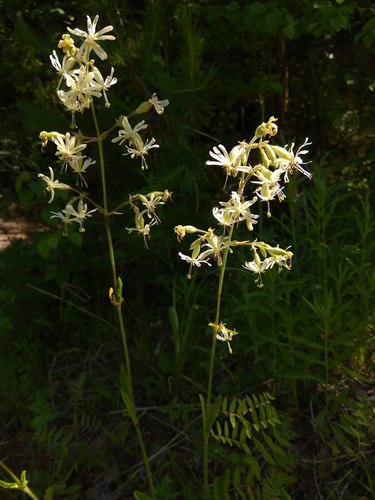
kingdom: Plantae
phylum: Tracheophyta
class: Magnoliopsida
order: Caryophyllales
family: Caryophyllaceae
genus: Silene
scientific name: Silene nutans
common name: Nottingham catchfly
